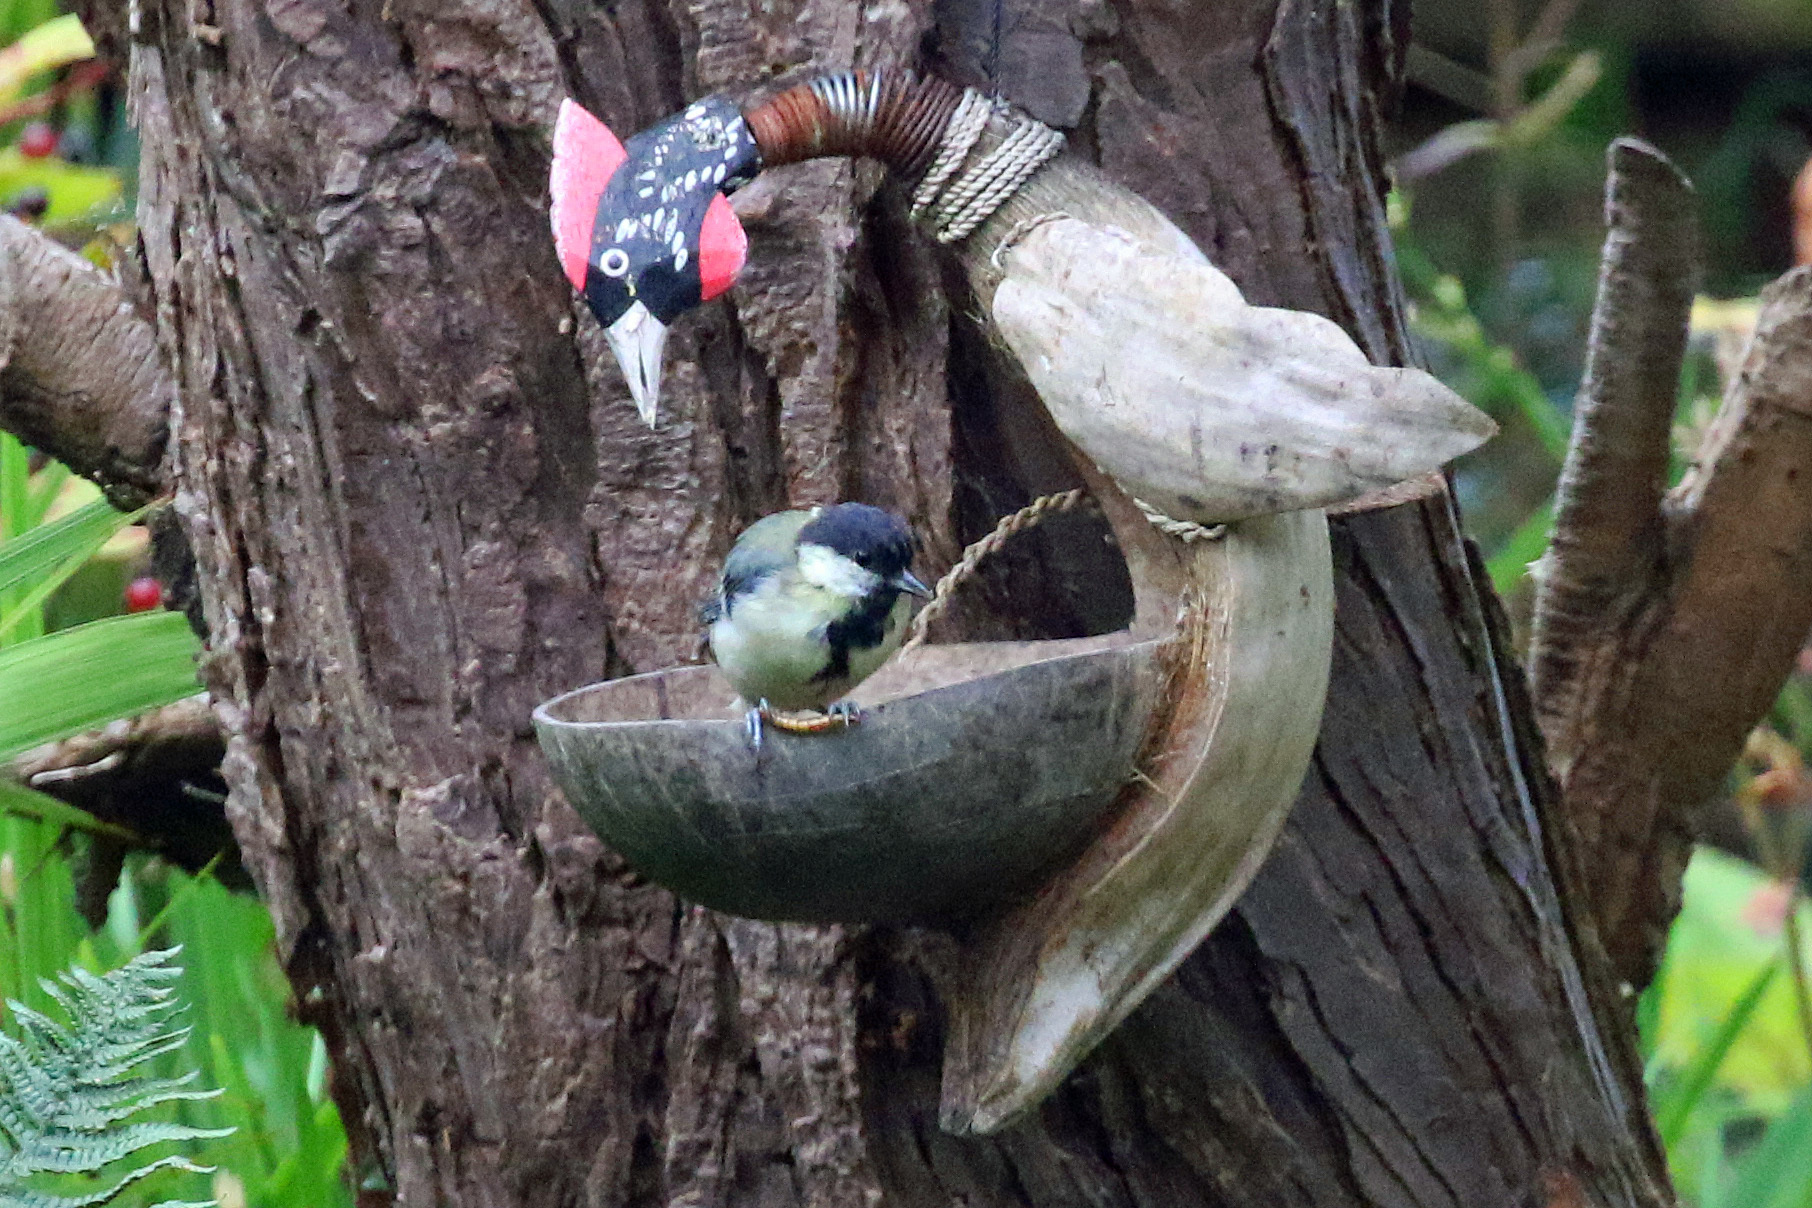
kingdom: Animalia
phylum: Chordata
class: Aves
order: Passeriformes
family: Paridae
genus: Parus
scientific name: Parus major
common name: Great tit
